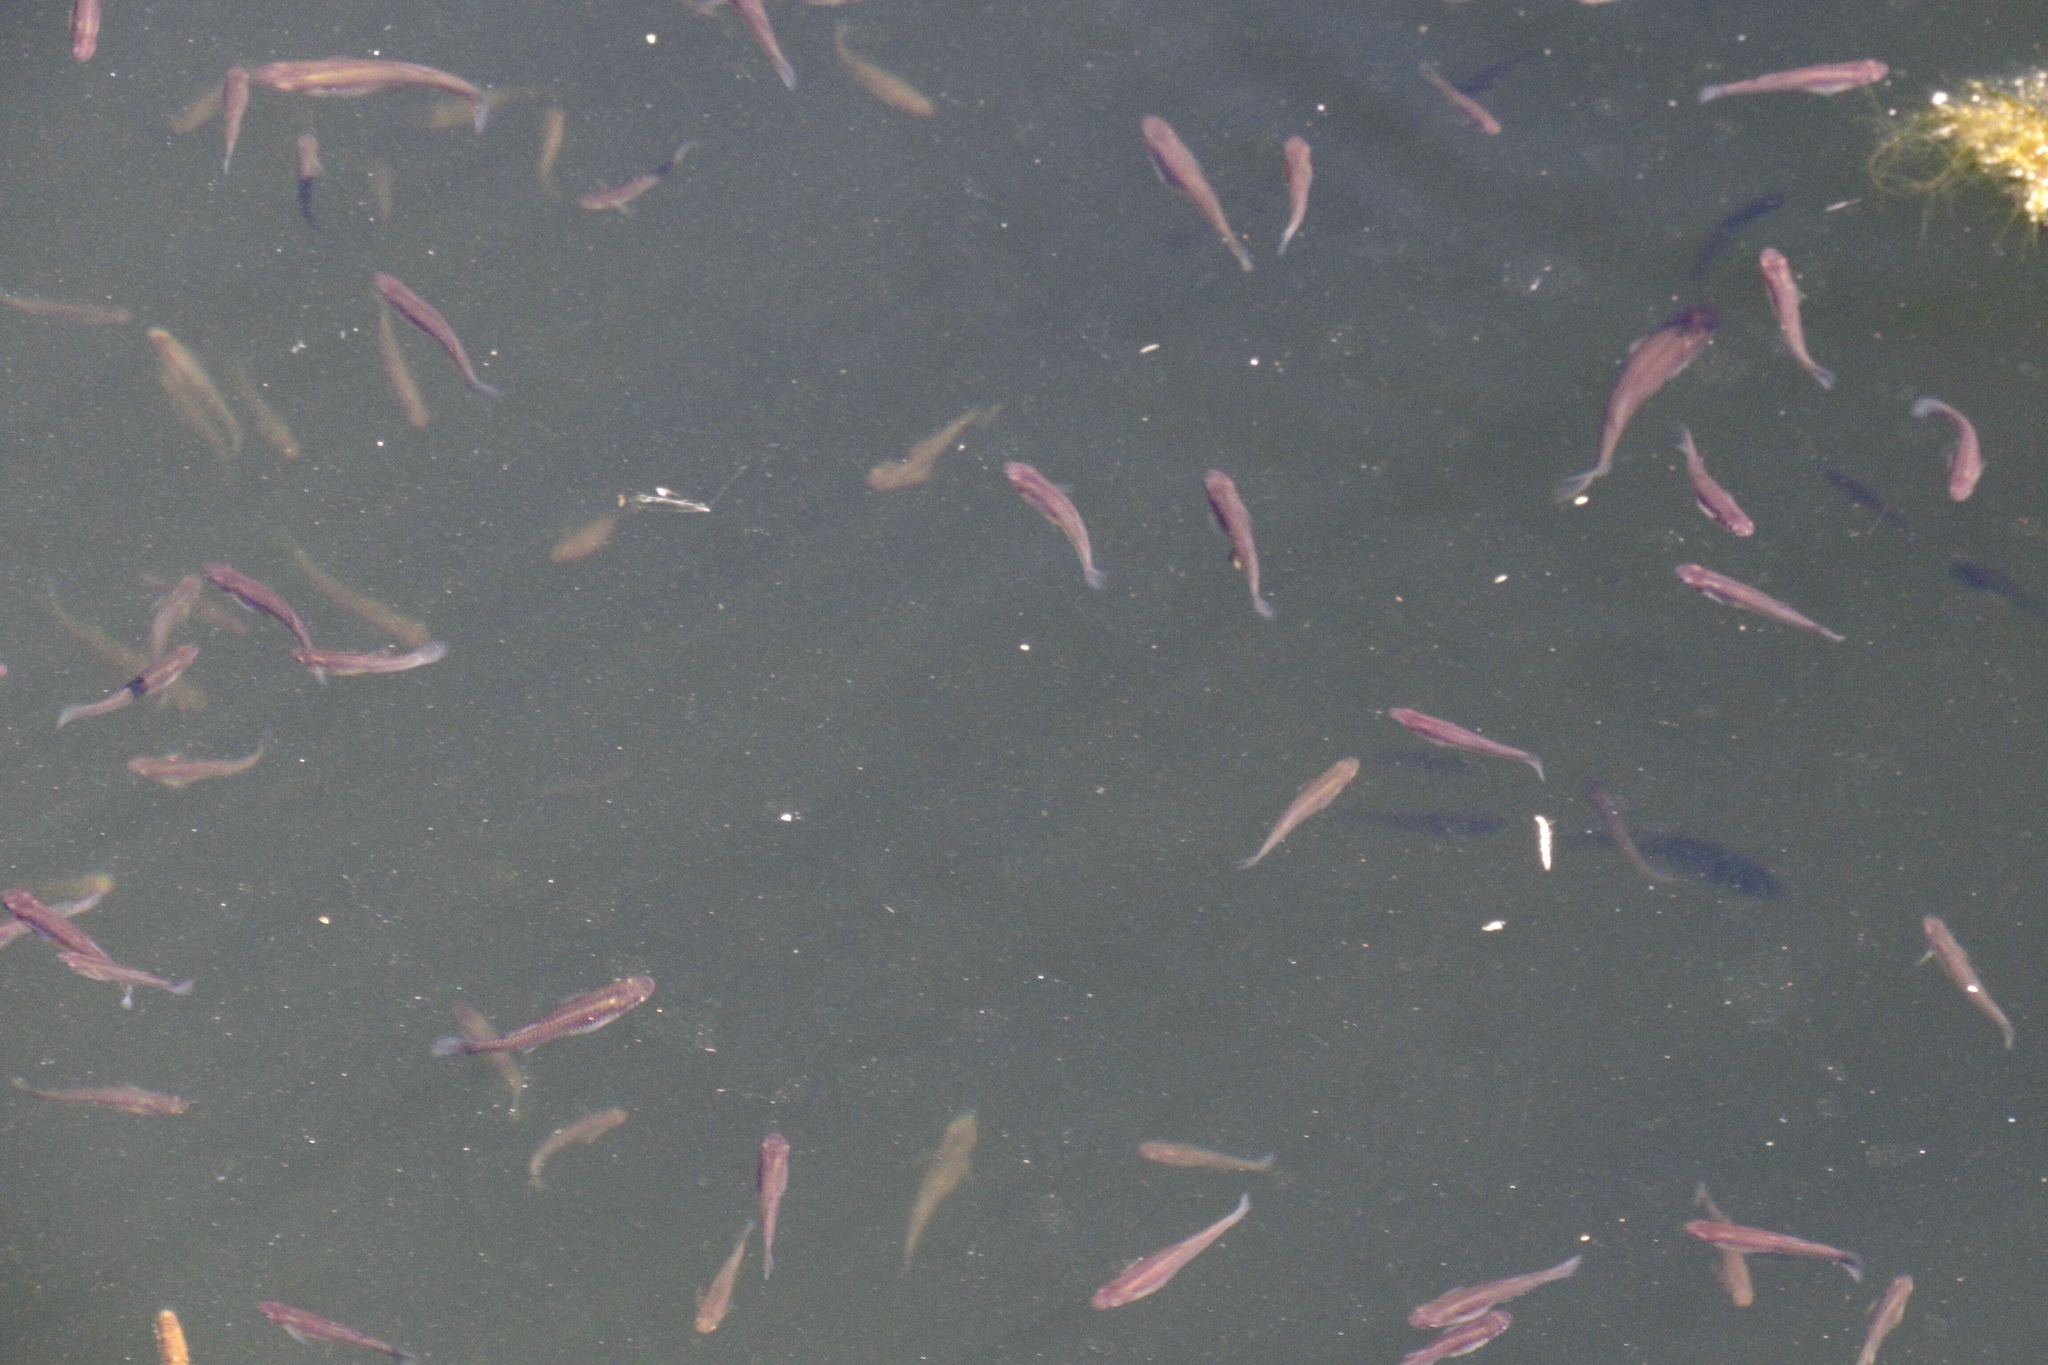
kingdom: Animalia
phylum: Chordata
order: Cyprinodontiformes
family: Poeciliidae
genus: Gambusia
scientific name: Gambusia affinis
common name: Mosquitofish
